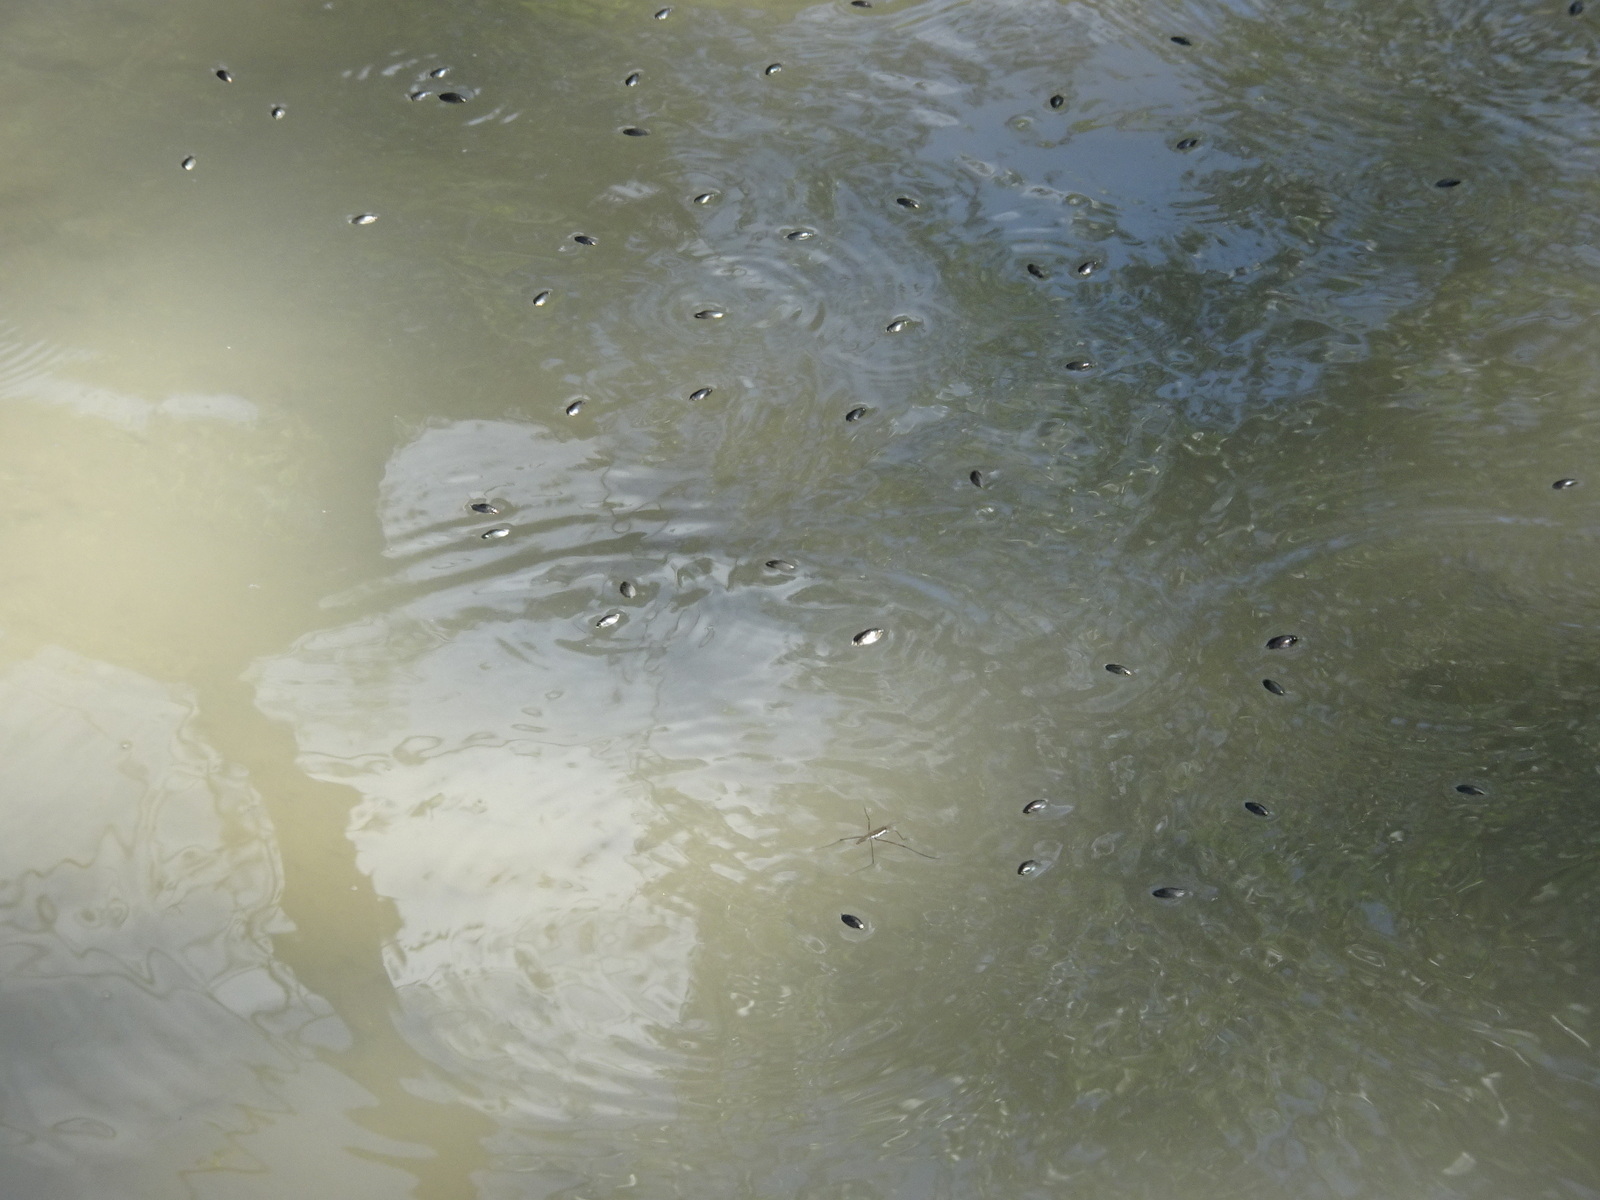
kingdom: Animalia
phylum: Arthropoda
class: Insecta
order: Coleoptera
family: Gyrinidae
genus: Dineutus
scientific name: Dineutus
